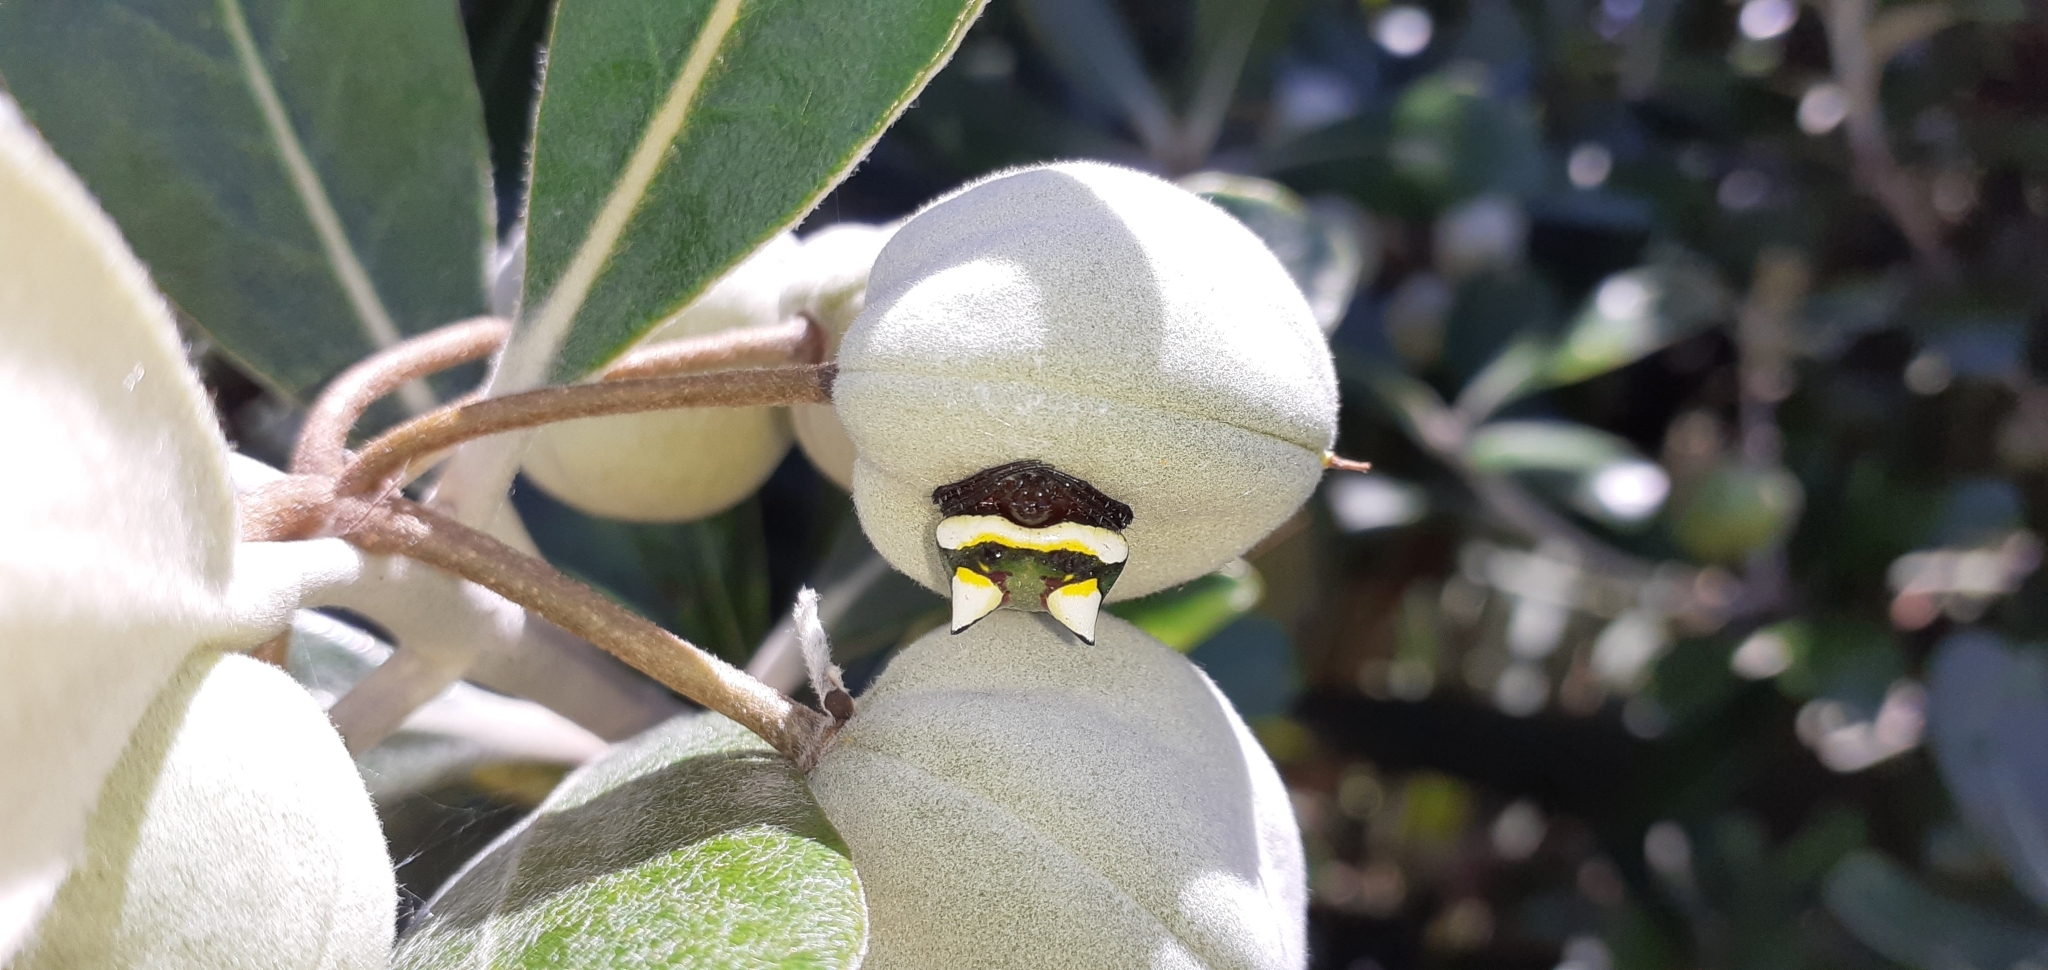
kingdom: Animalia
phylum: Arthropoda
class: Arachnida
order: Araneae
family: Araneidae
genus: Poecilopachys
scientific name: Poecilopachys australasia
